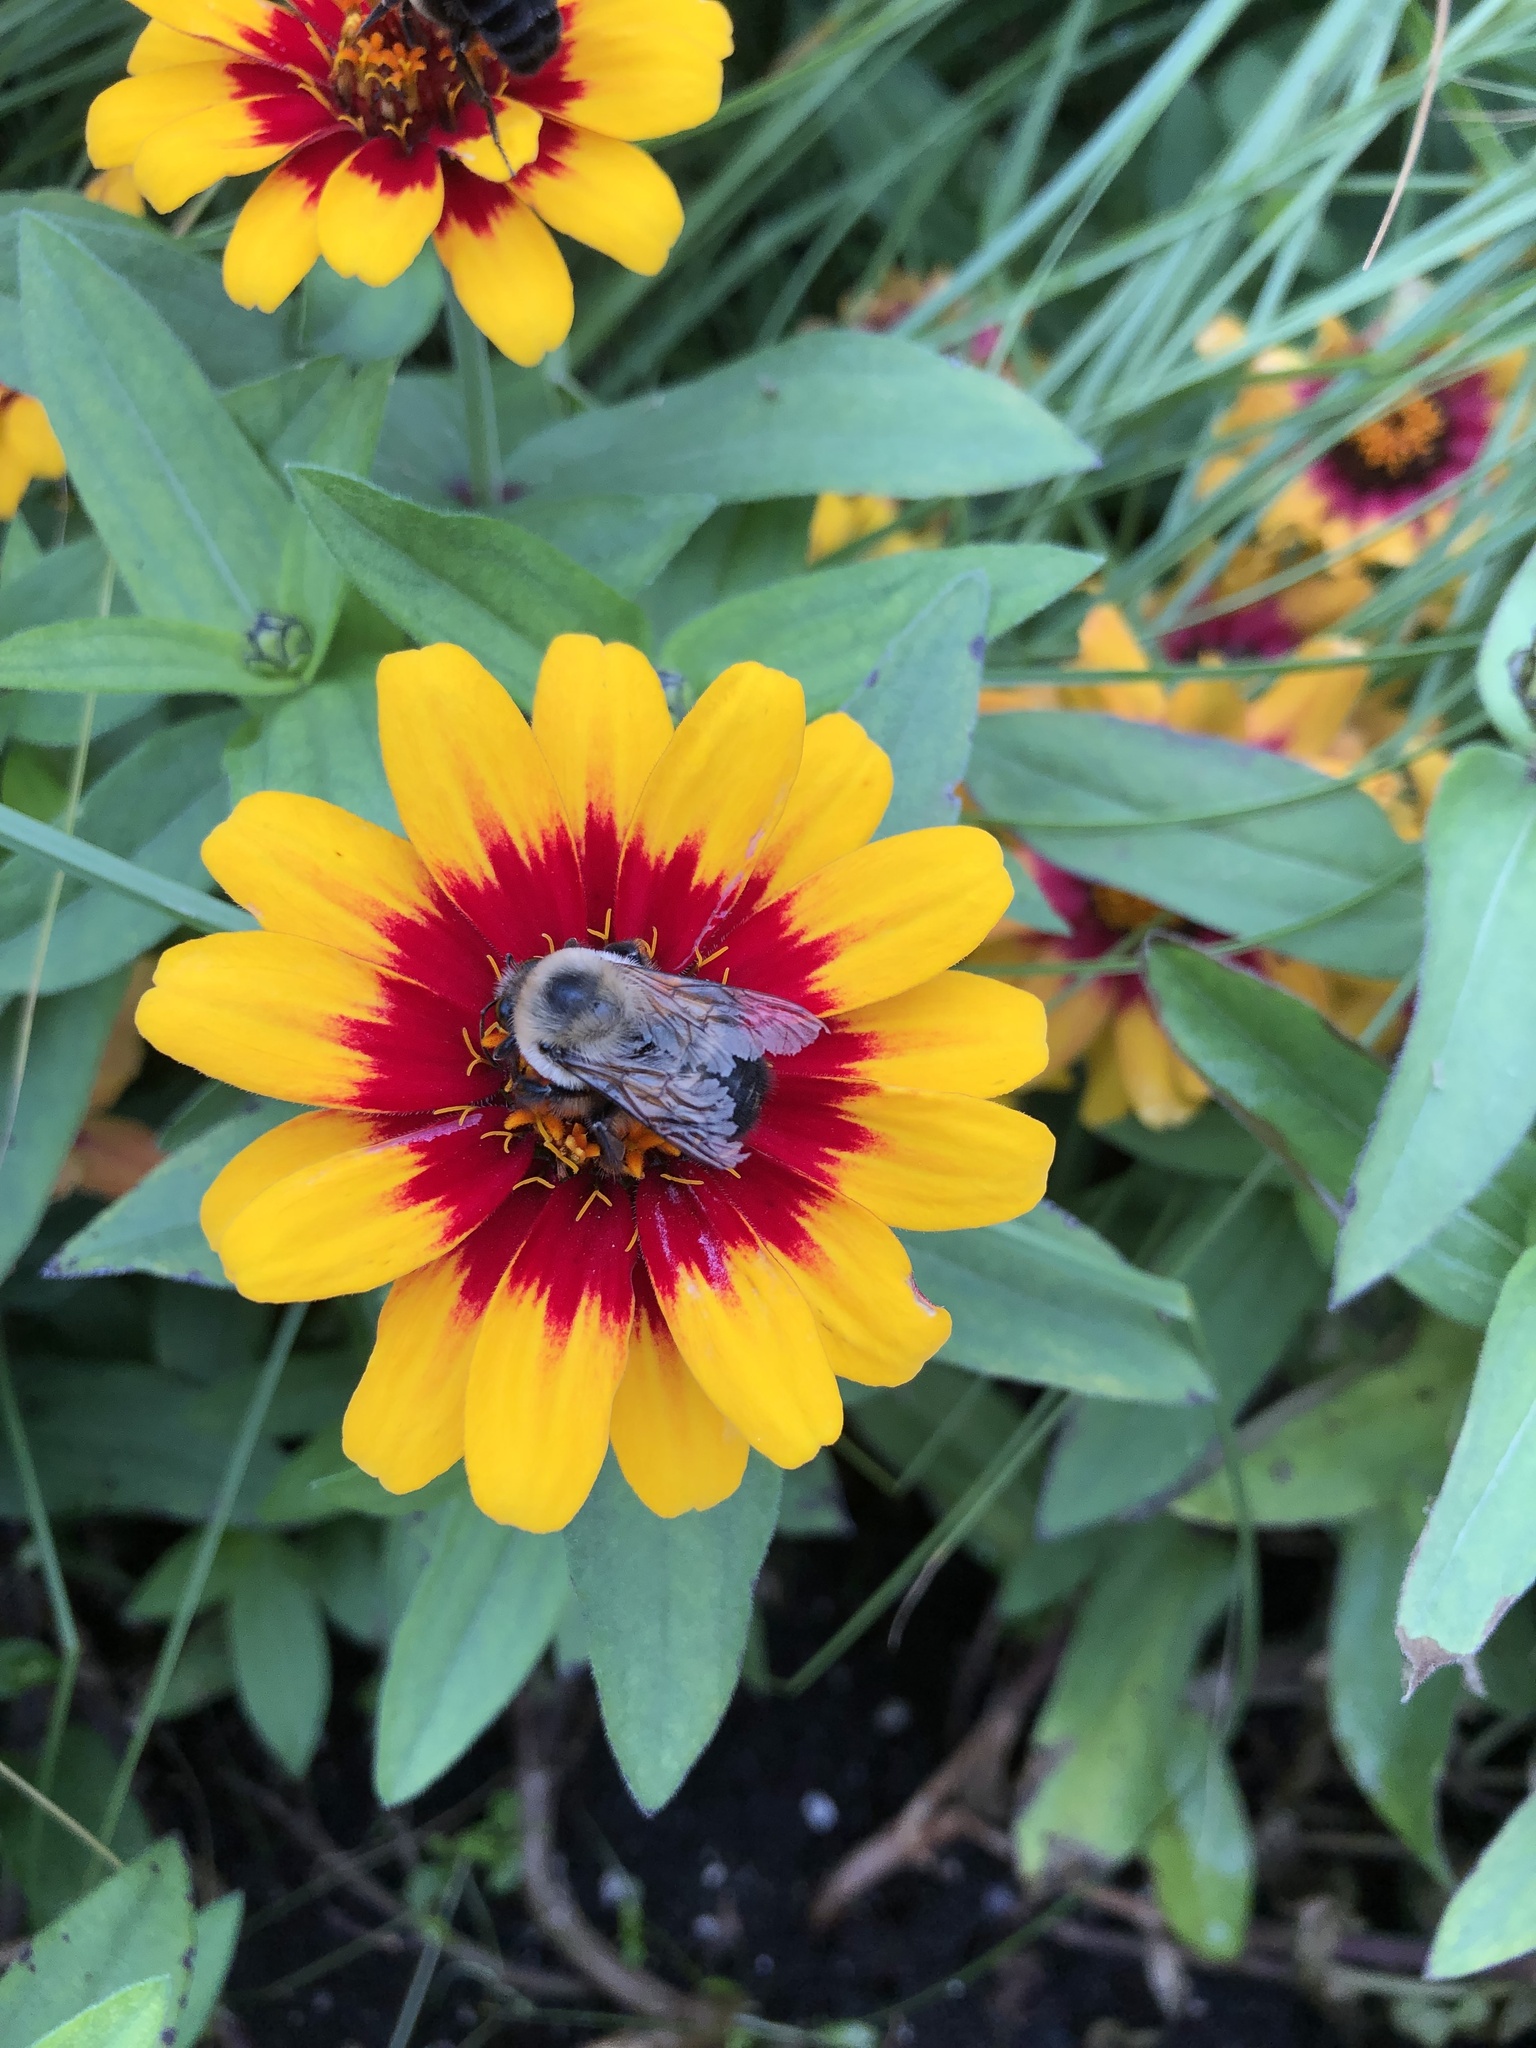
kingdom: Animalia
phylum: Arthropoda
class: Insecta
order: Hymenoptera
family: Apidae
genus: Bombus
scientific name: Bombus griseocollis
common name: Brown-belted bumble bee
